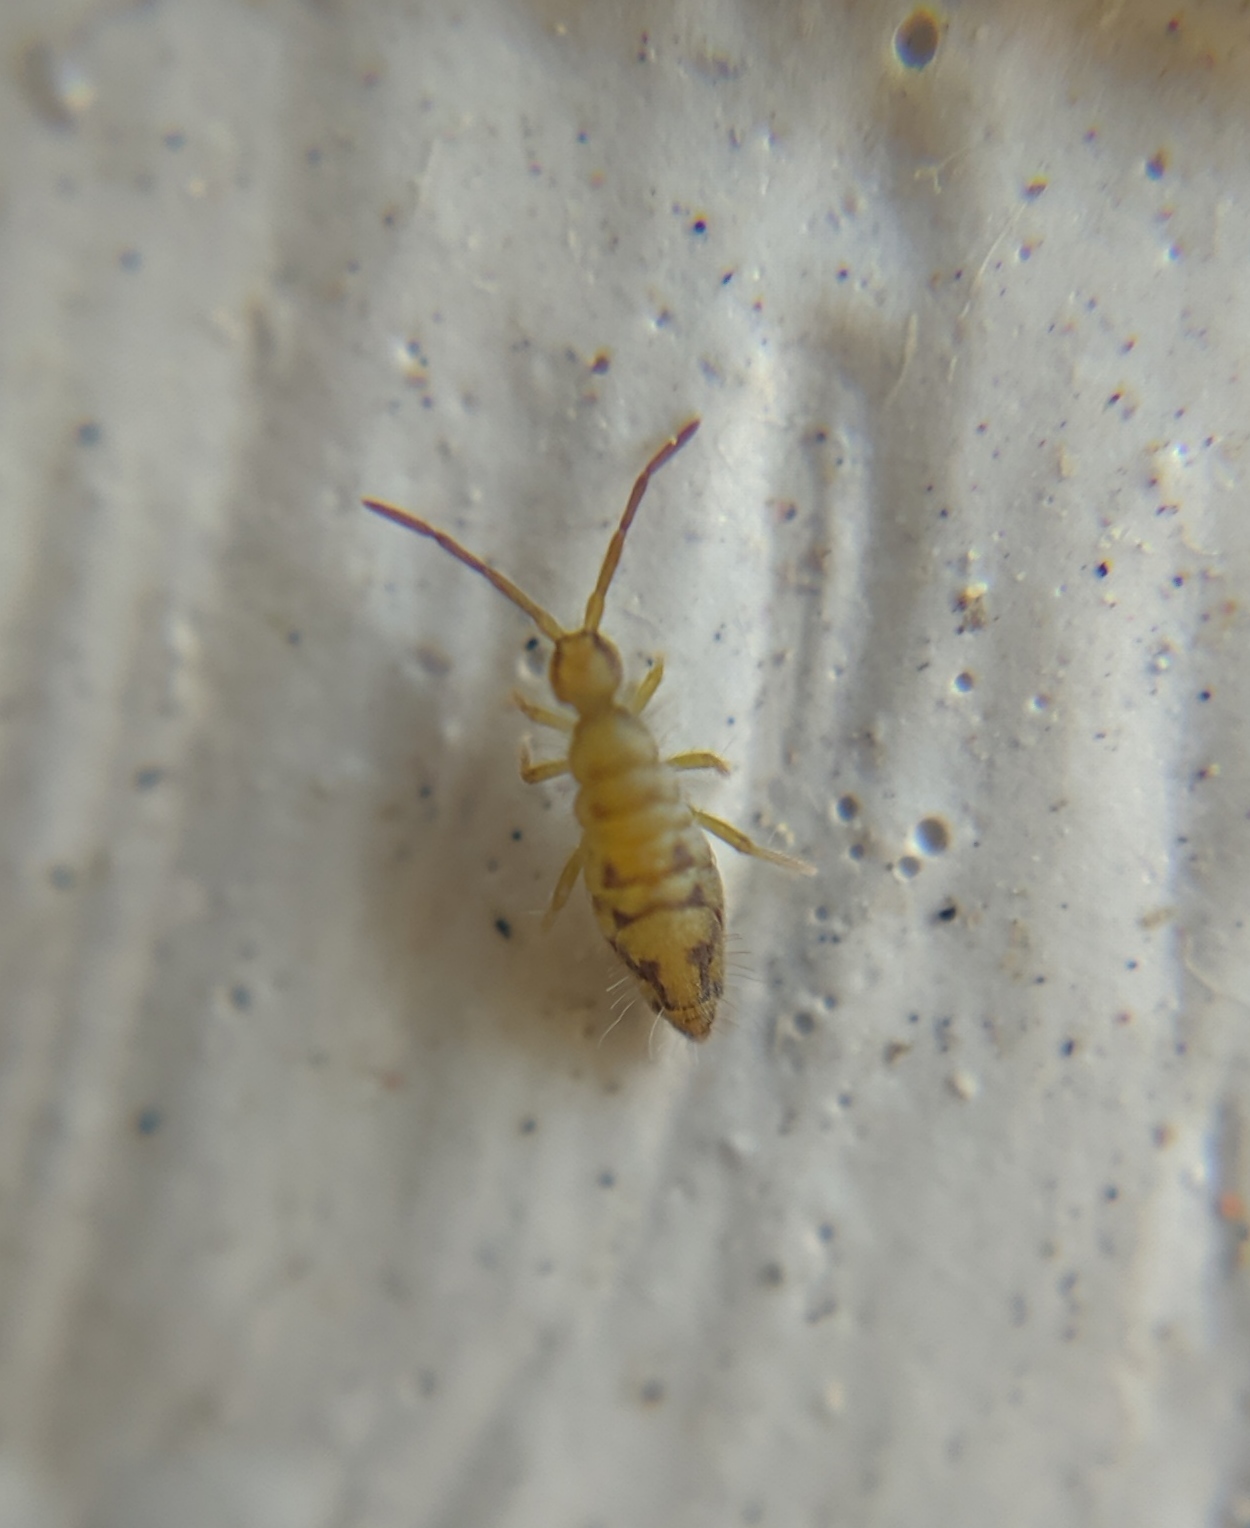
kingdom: Animalia
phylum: Arthropoda
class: Collembola
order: Entomobryomorpha
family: Entomobryidae
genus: Entomobrya
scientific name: Entomobrya nivalis
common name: Cosmopolitan springtail
